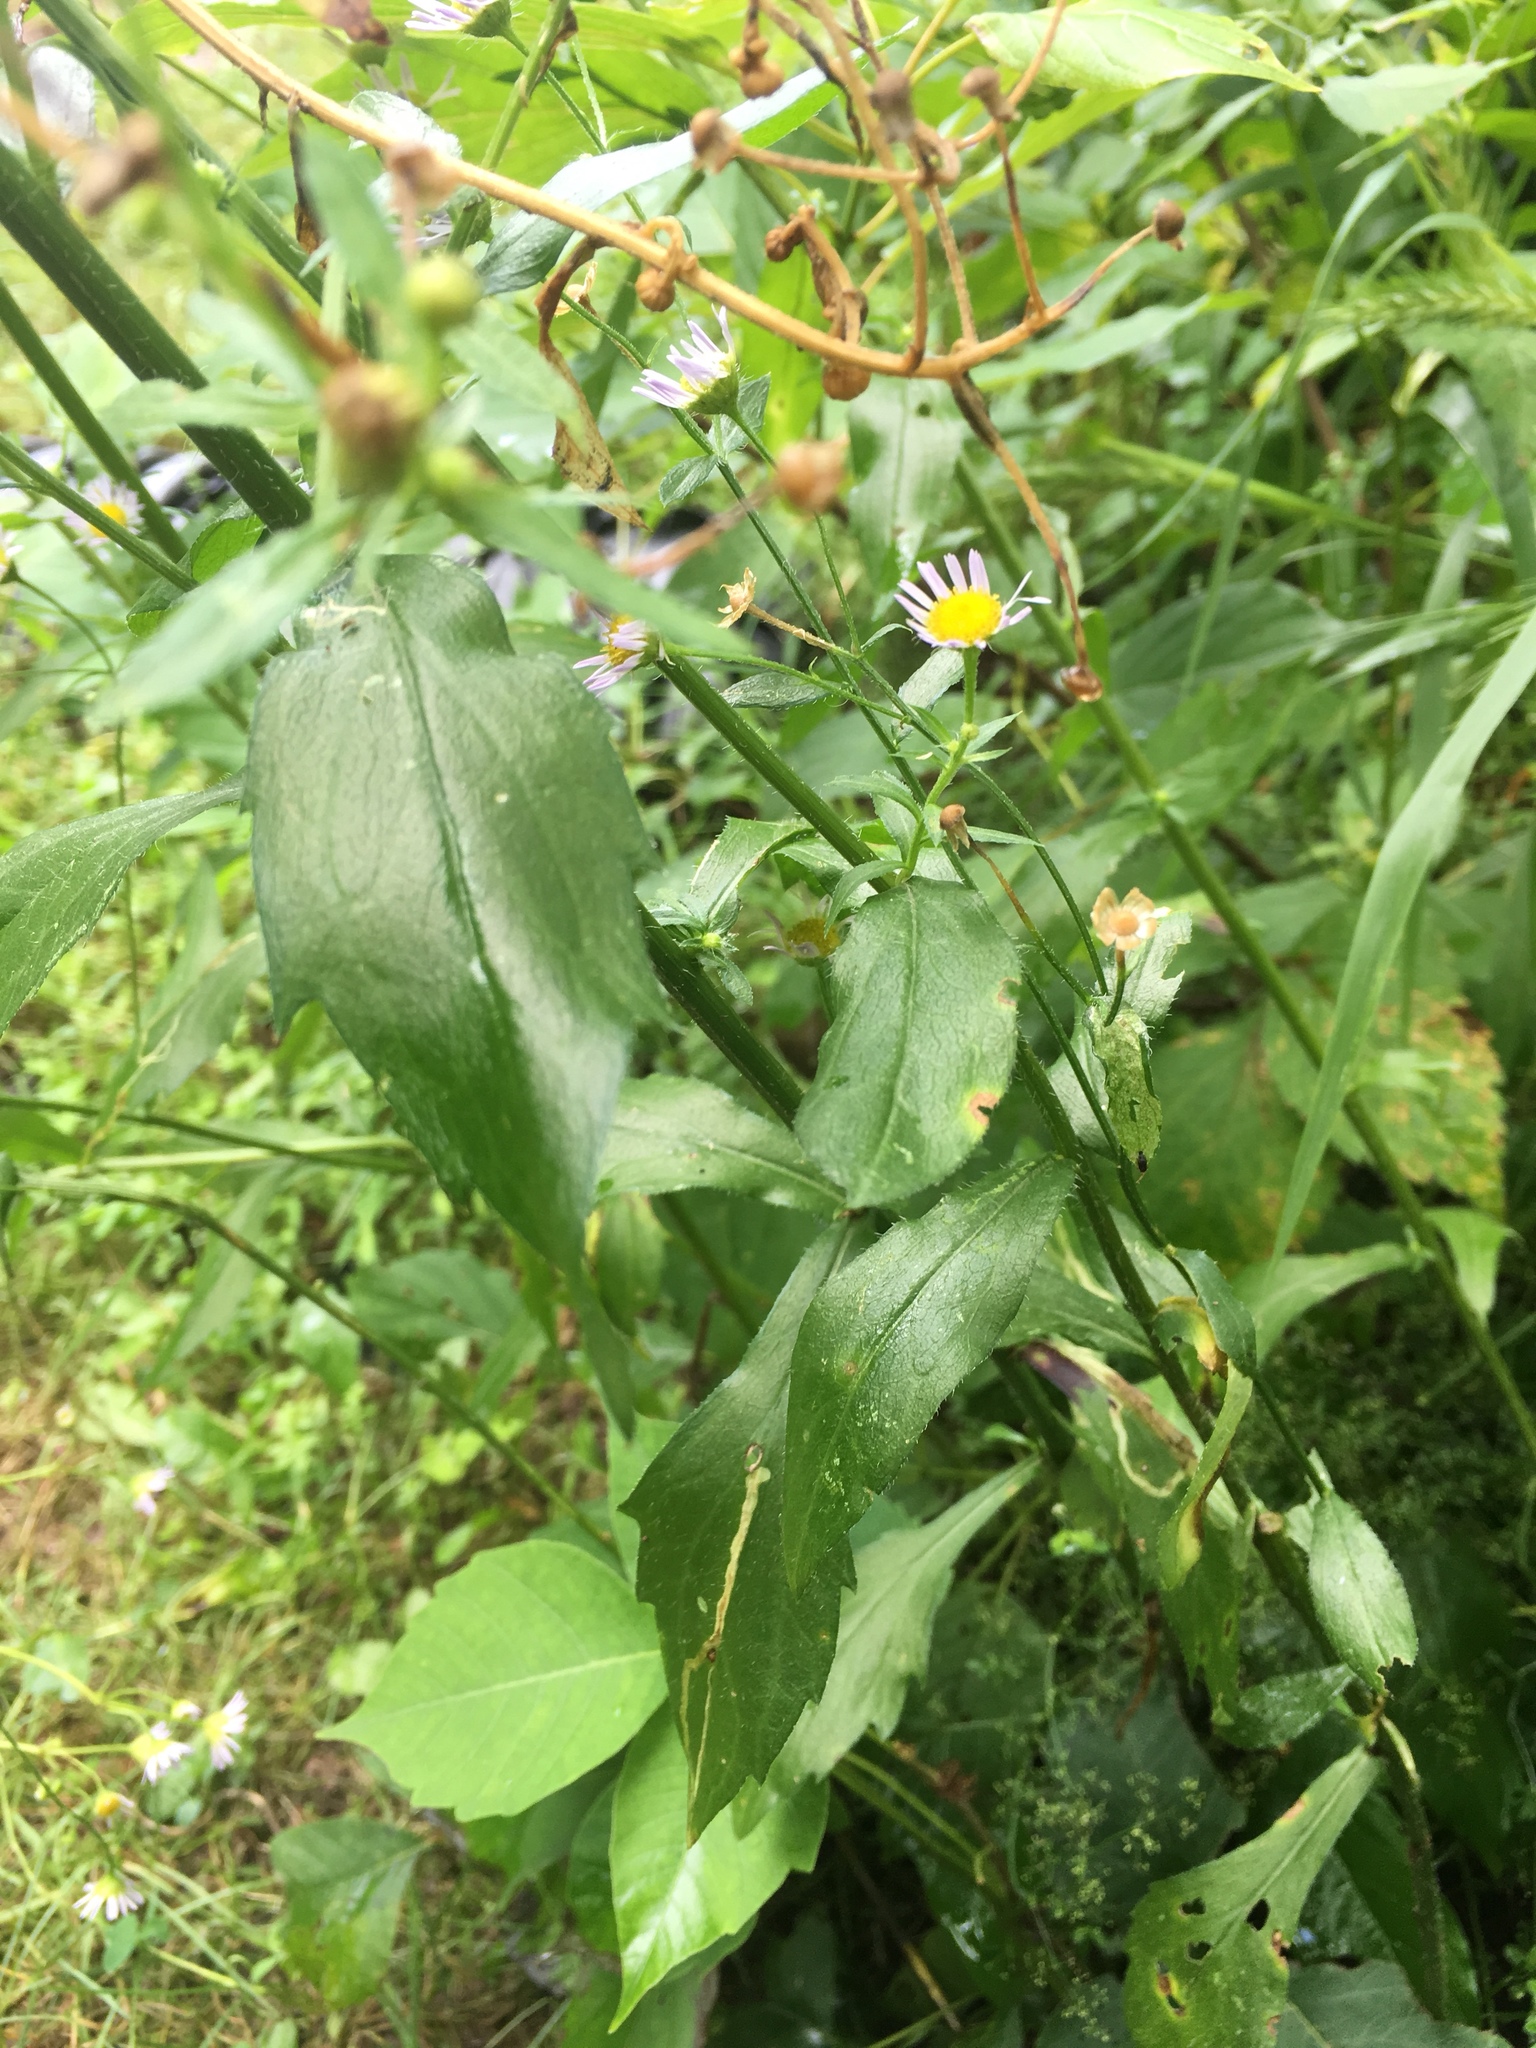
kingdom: Plantae
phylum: Tracheophyta
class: Magnoliopsida
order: Asterales
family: Asteraceae
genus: Erigeron
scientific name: Erigeron philadelphicus
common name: Robin's-plantain
